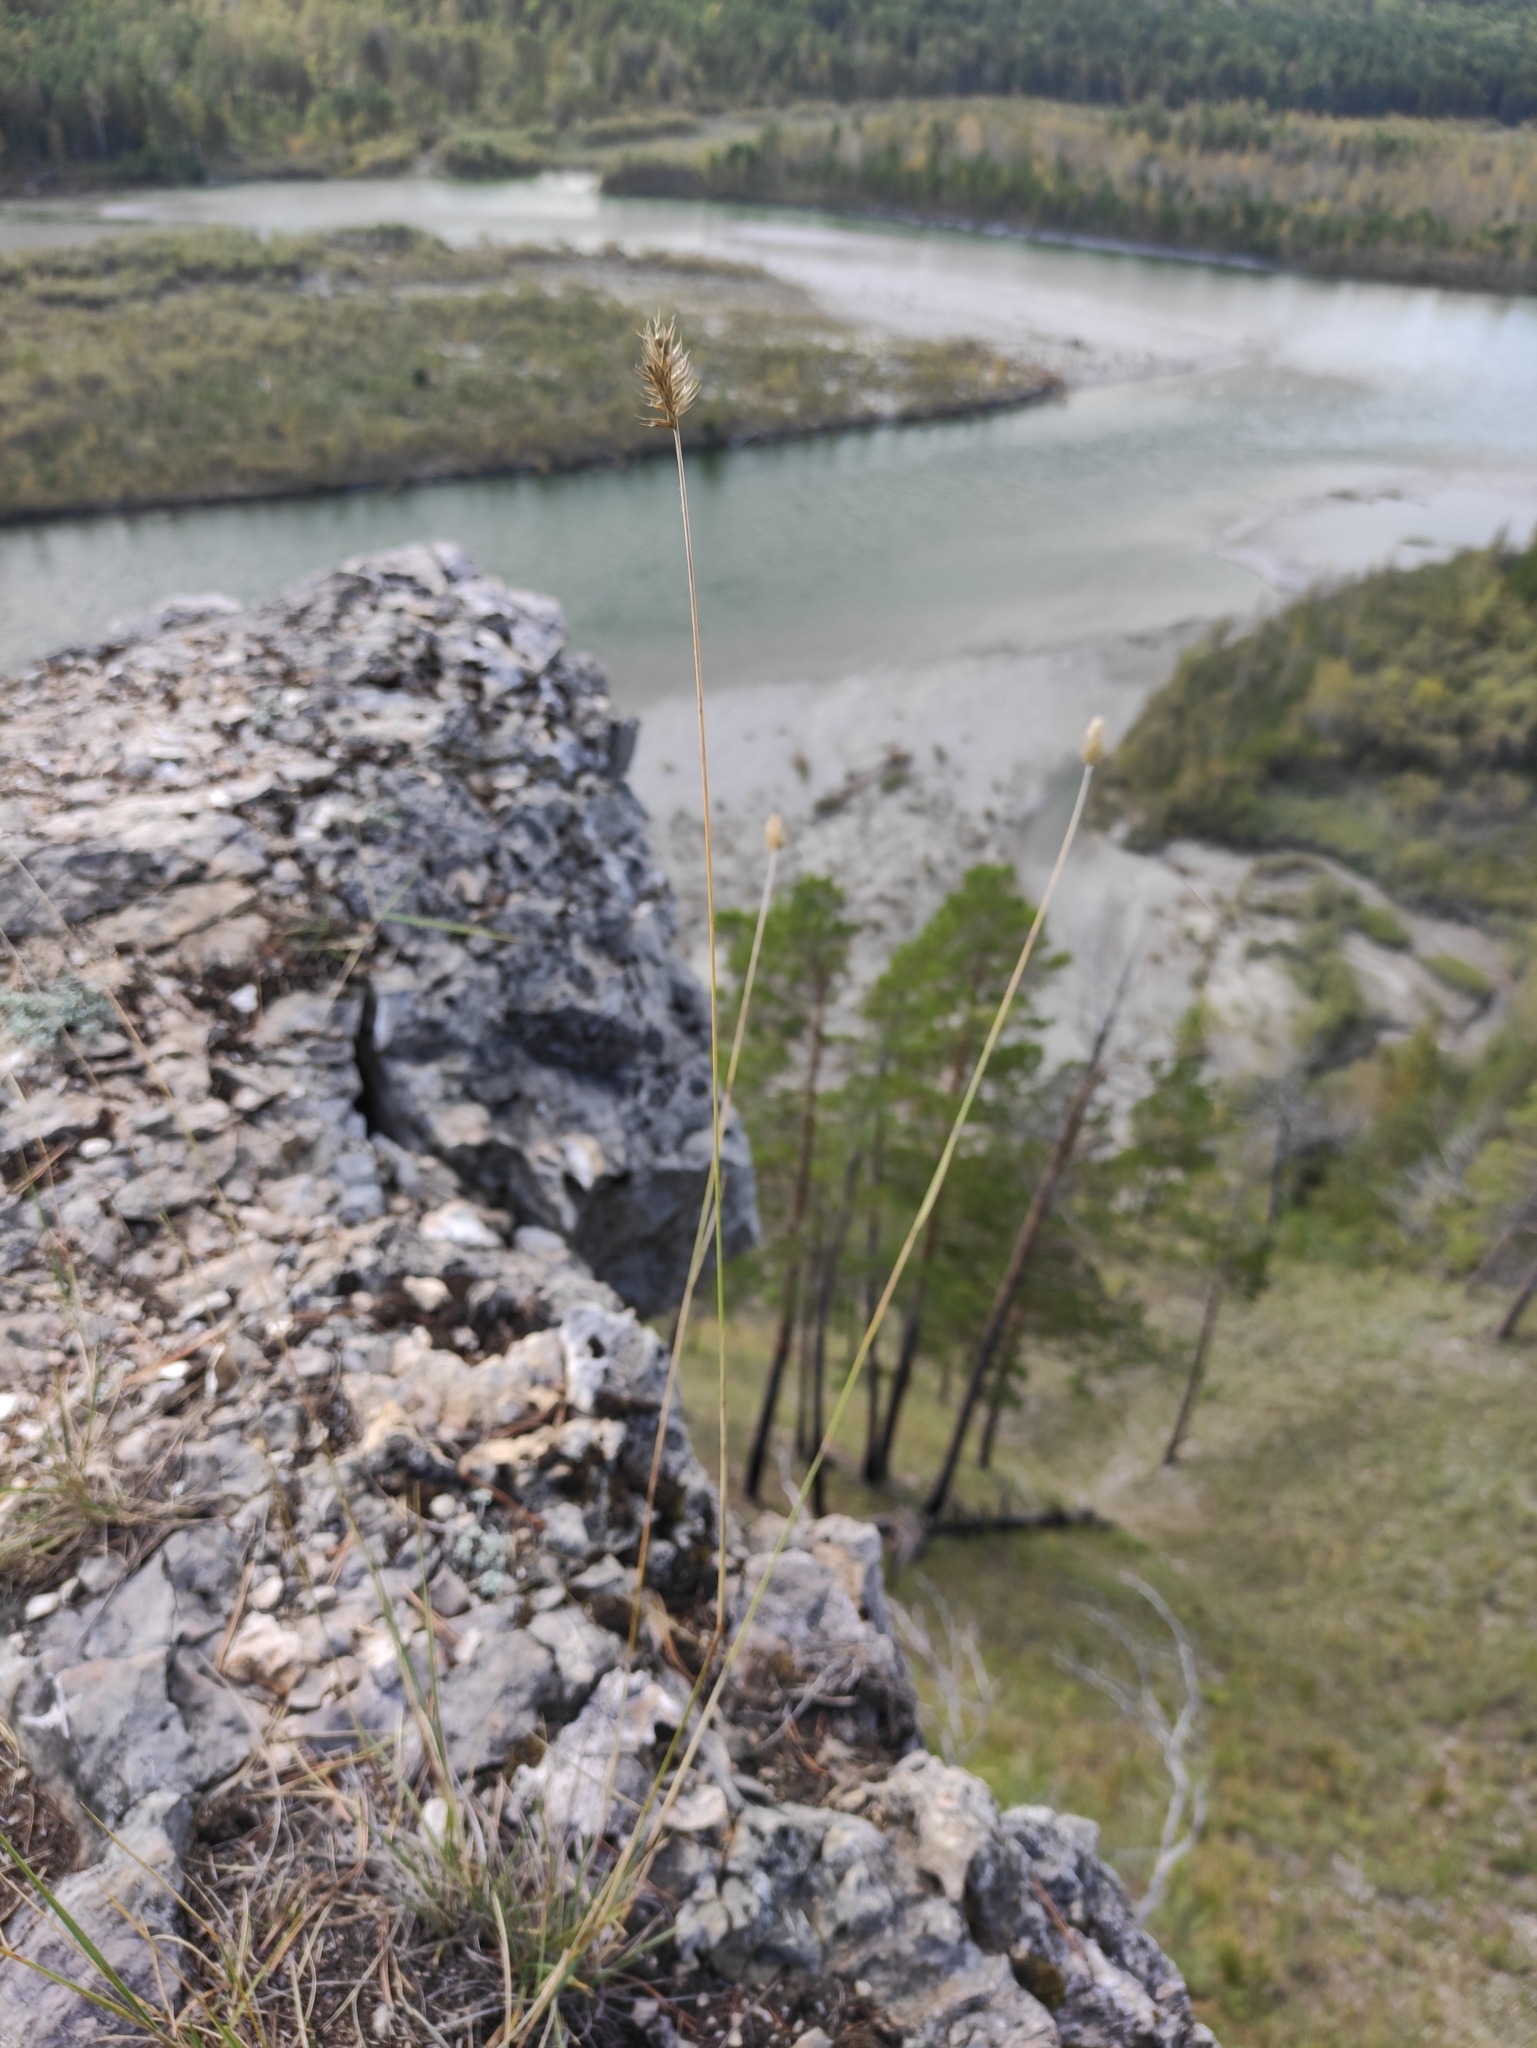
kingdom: Plantae
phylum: Tracheophyta
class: Liliopsida
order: Poales
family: Poaceae
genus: Agropyron
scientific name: Agropyron cristatum
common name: Crested wheatgrass
